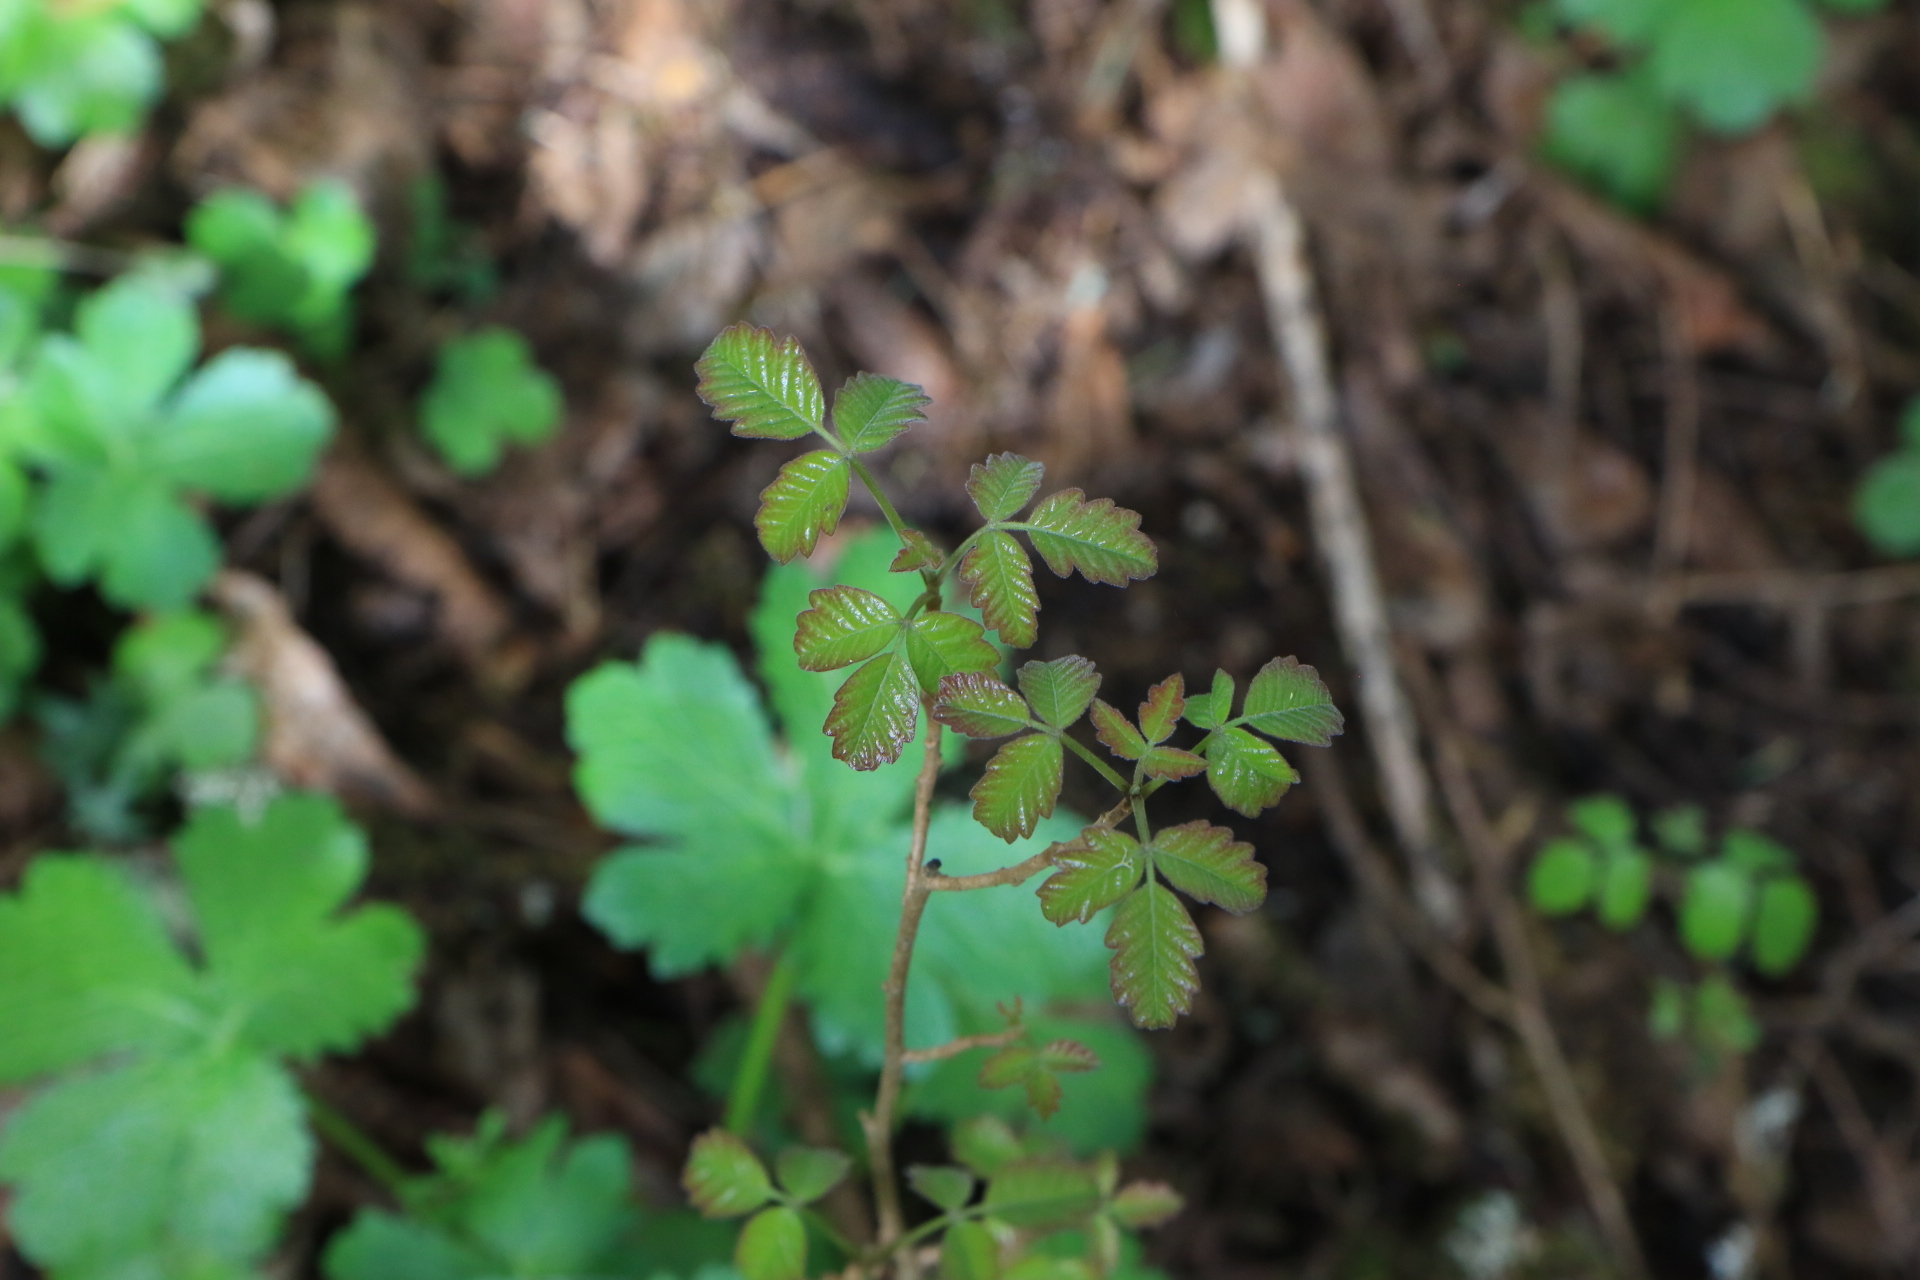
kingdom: Plantae
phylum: Tracheophyta
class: Magnoliopsida
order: Sapindales
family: Anacardiaceae
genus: Toxicodendron
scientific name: Toxicodendron diversilobum
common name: Pacific poison-oak
